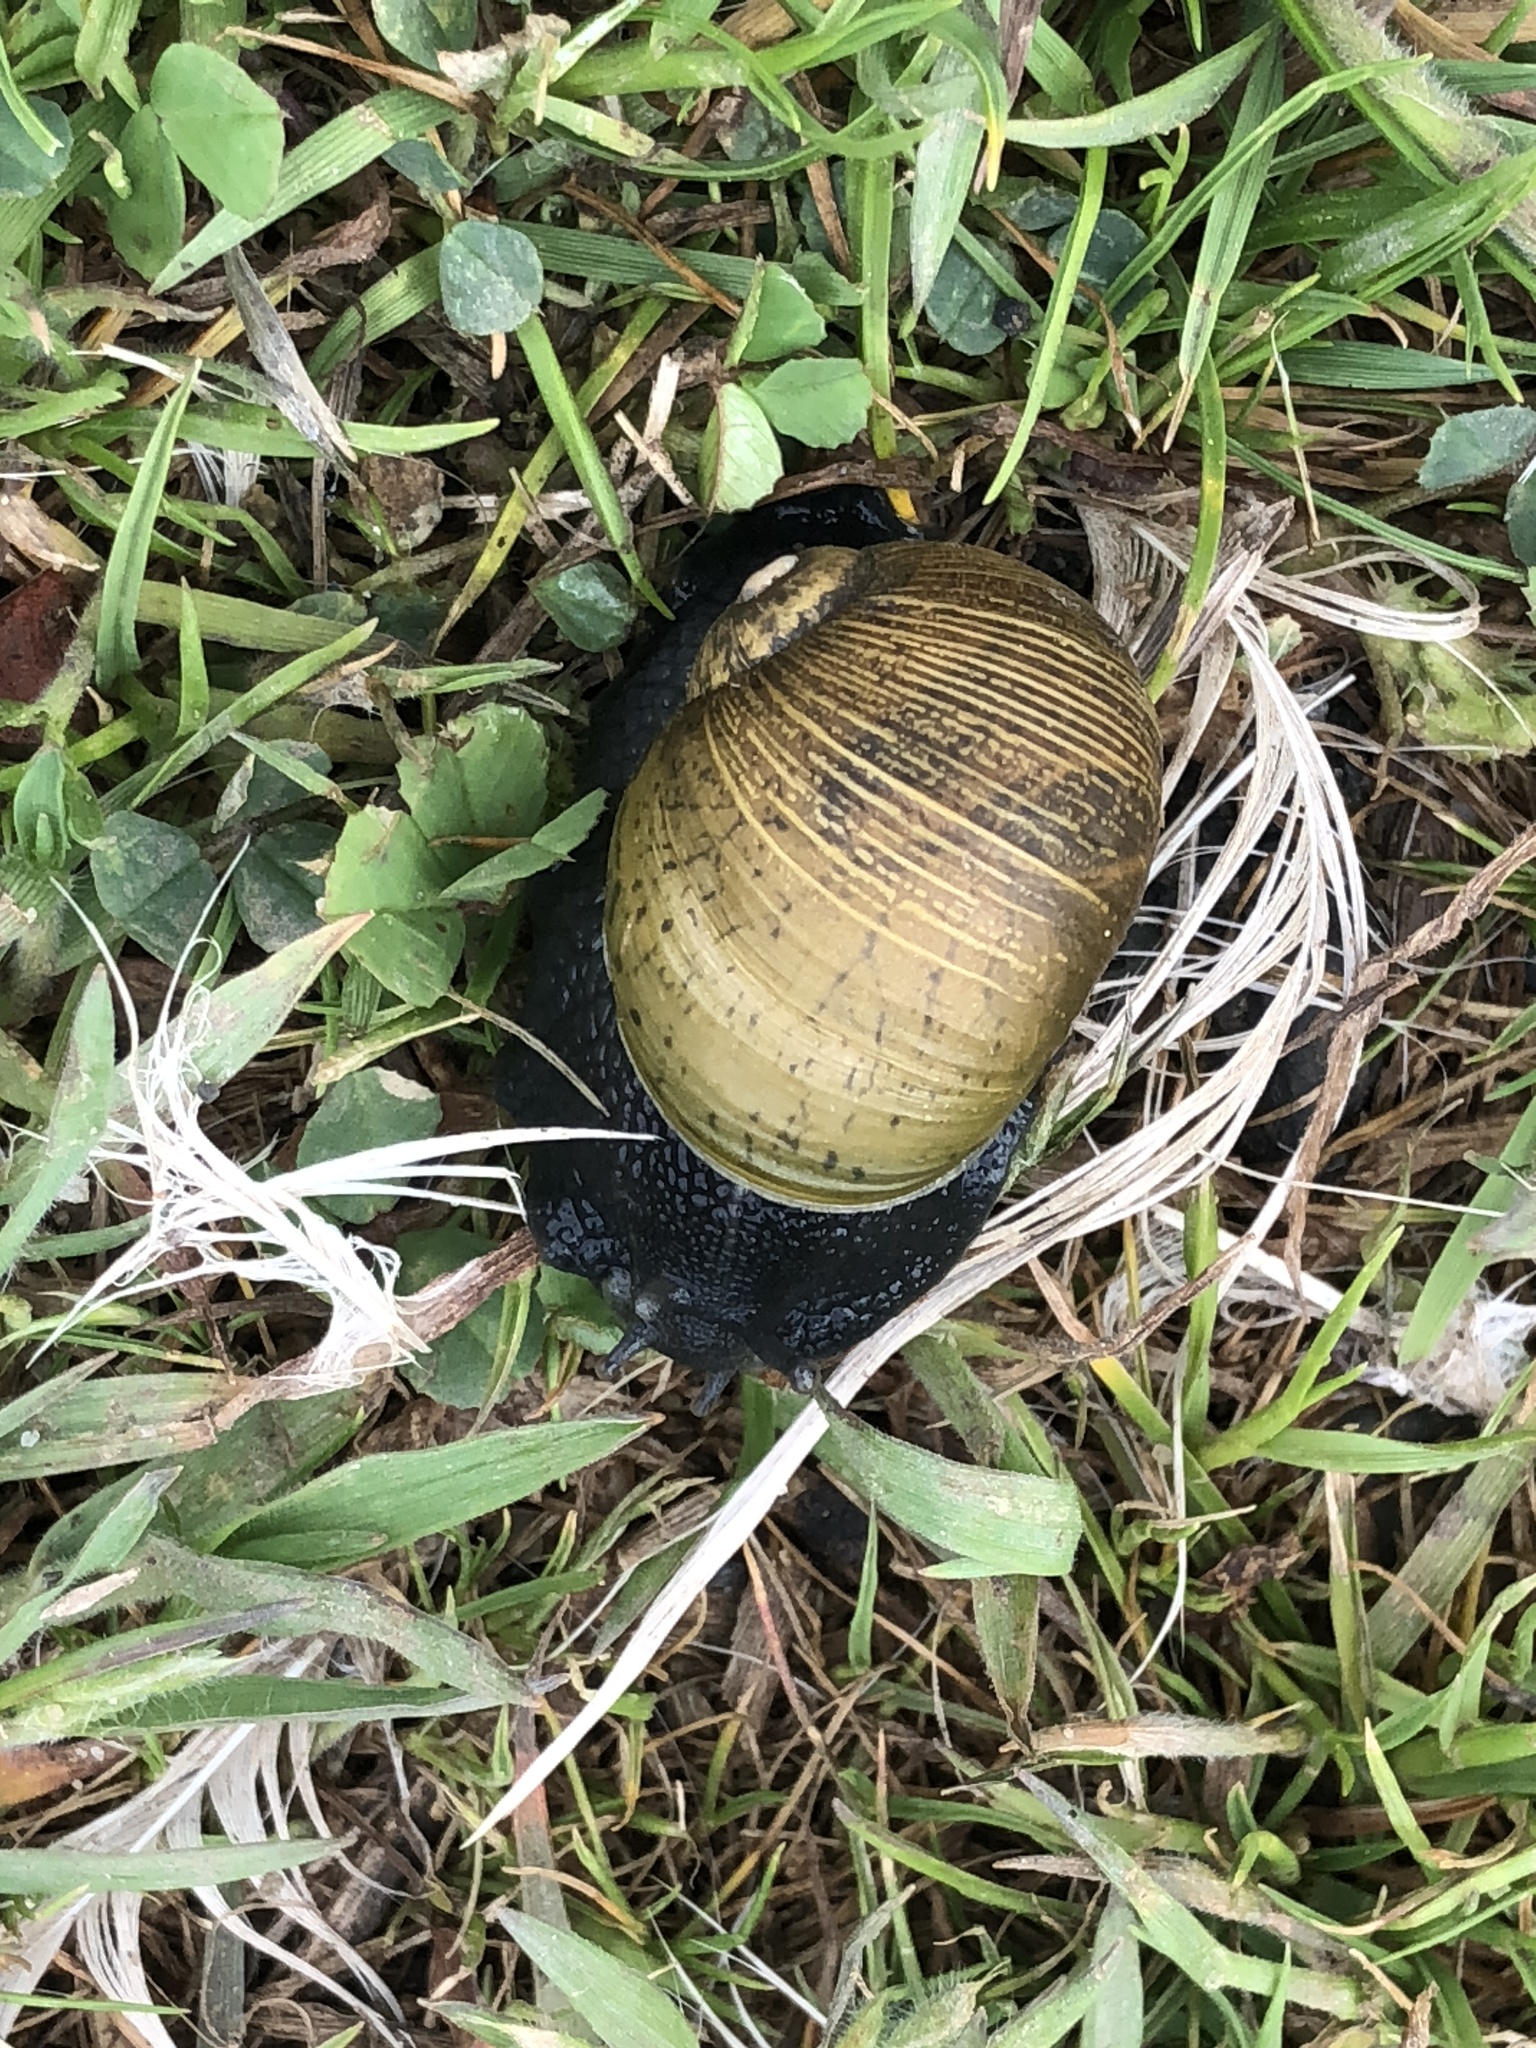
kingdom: Animalia
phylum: Mollusca
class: Gastropoda
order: Stylommatophora
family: Helicidae
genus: Cantareus
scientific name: Cantareus apertus
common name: Green gardensnail
